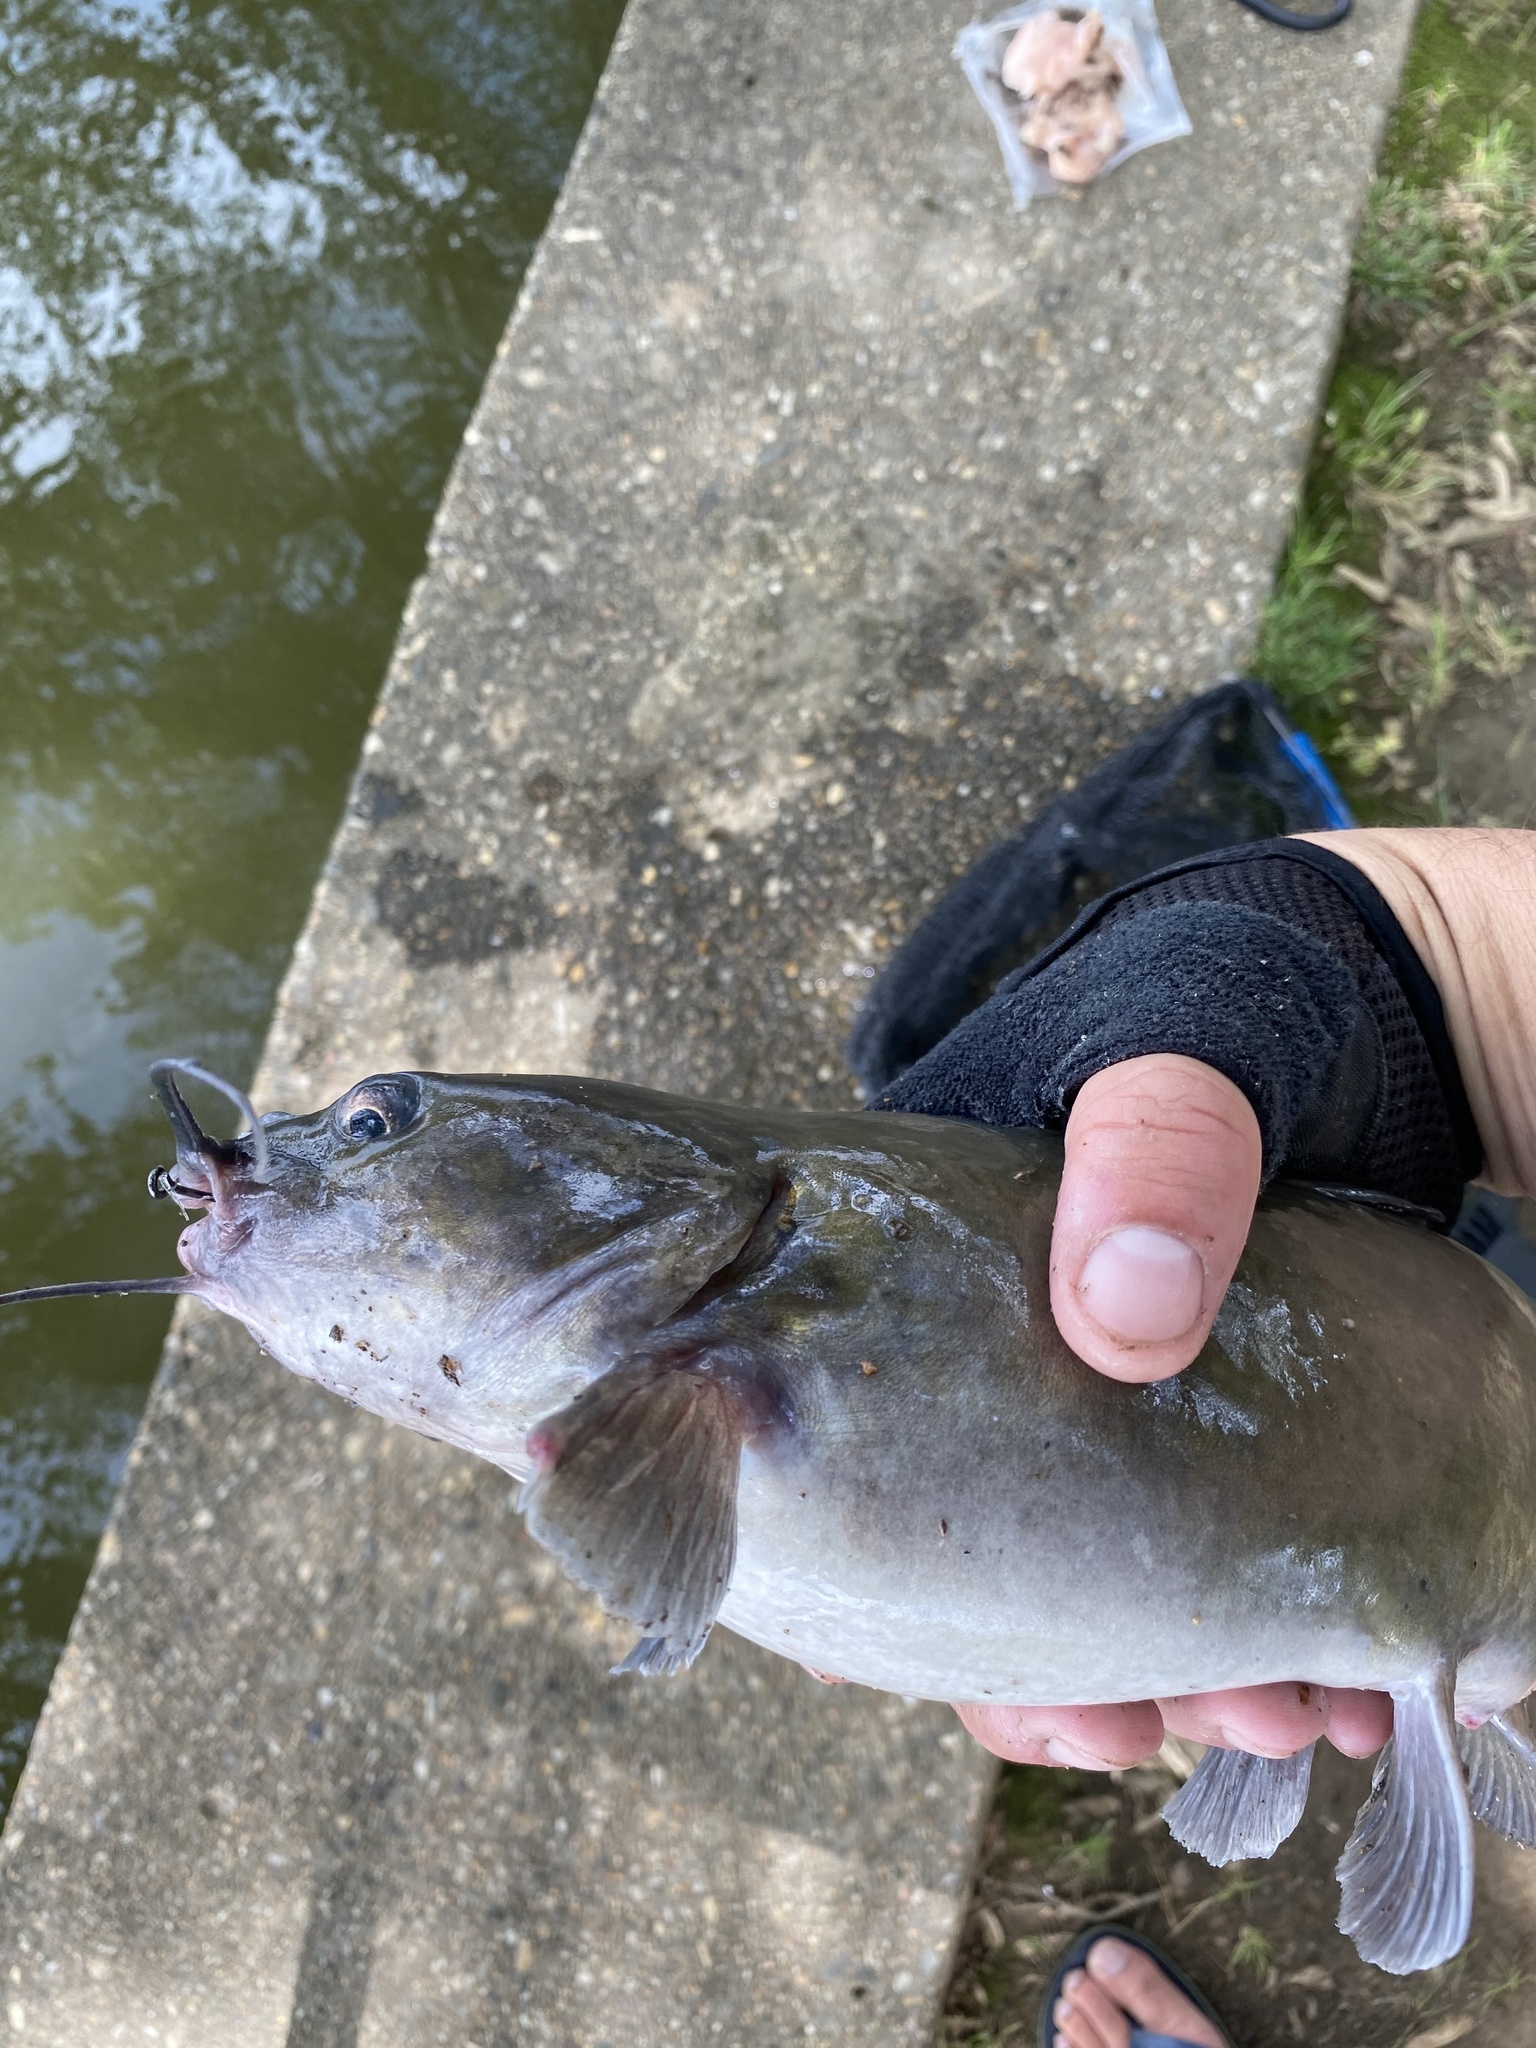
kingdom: Animalia
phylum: Chordata
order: Siluriformes
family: Ictaluridae
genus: Ictalurus
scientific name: Ictalurus punctatus
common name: Channel catfish
